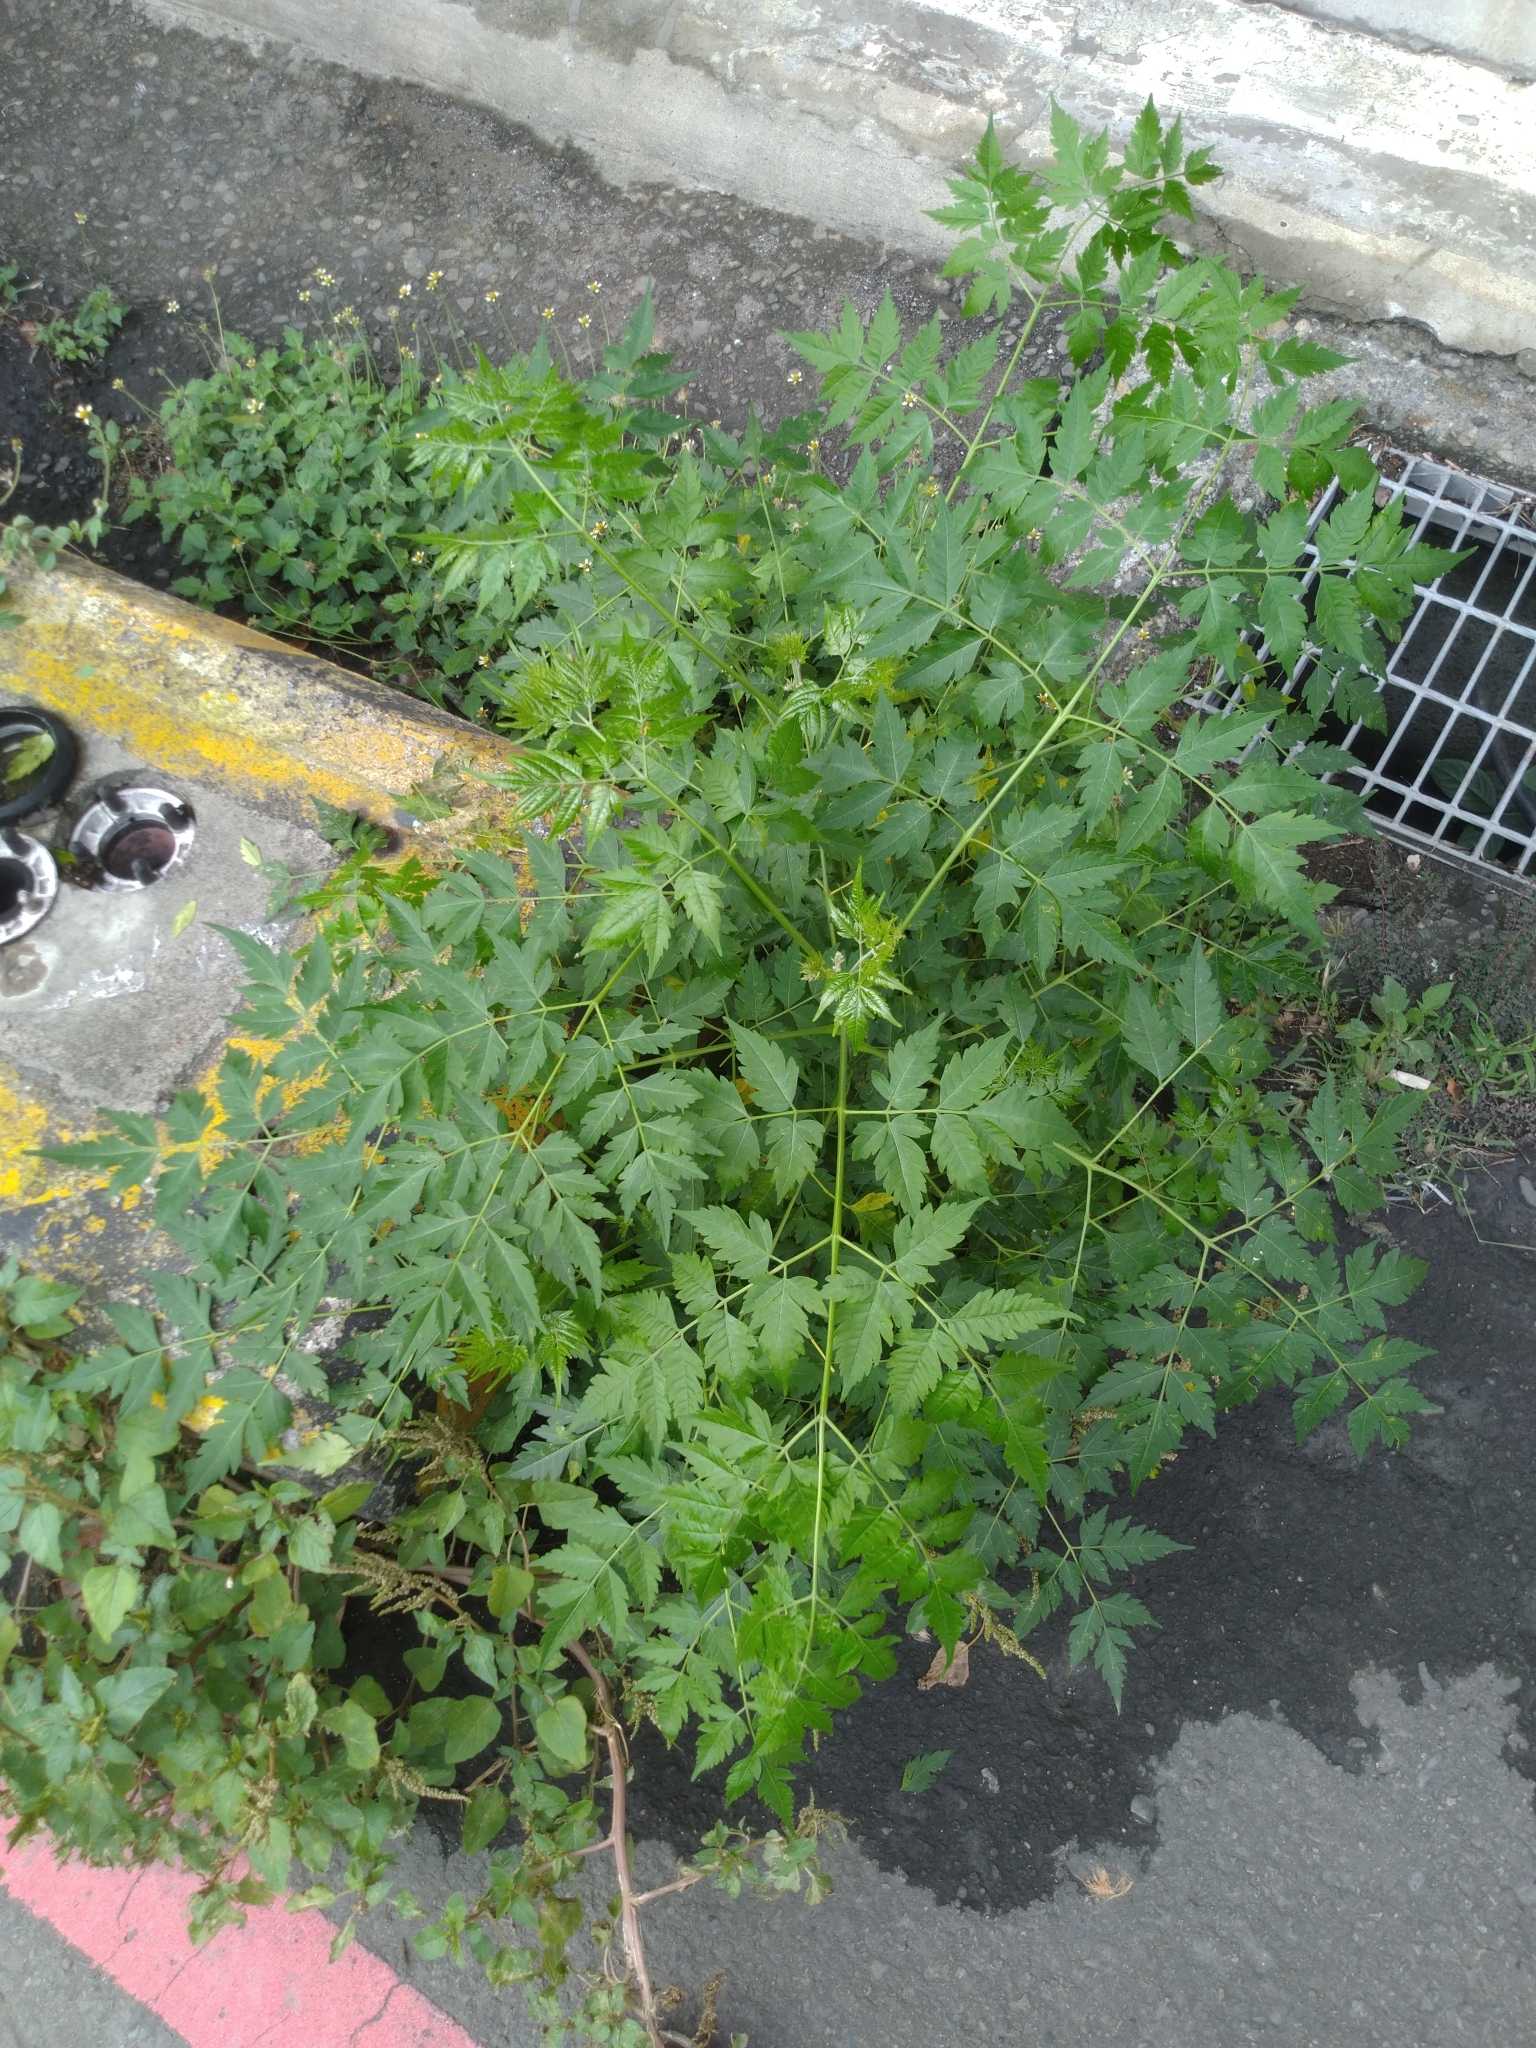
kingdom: Plantae
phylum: Tracheophyta
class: Magnoliopsida
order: Sapindales
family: Meliaceae
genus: Melia
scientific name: Melia azedarach
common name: Chinaberrytree
